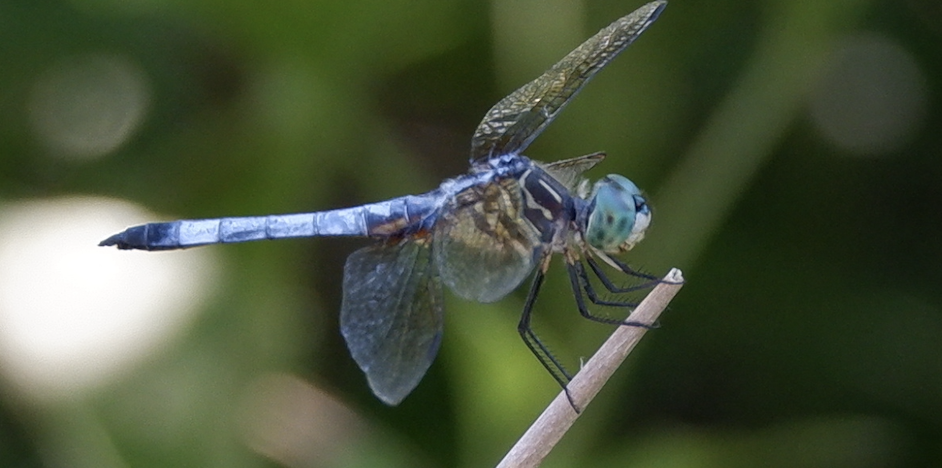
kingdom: Animalia
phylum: Arthropoda
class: Insecta
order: Odonata
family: Libellulidae
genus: Pachydiplax
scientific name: Pachydiplax longipennis
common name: Blue dasher
